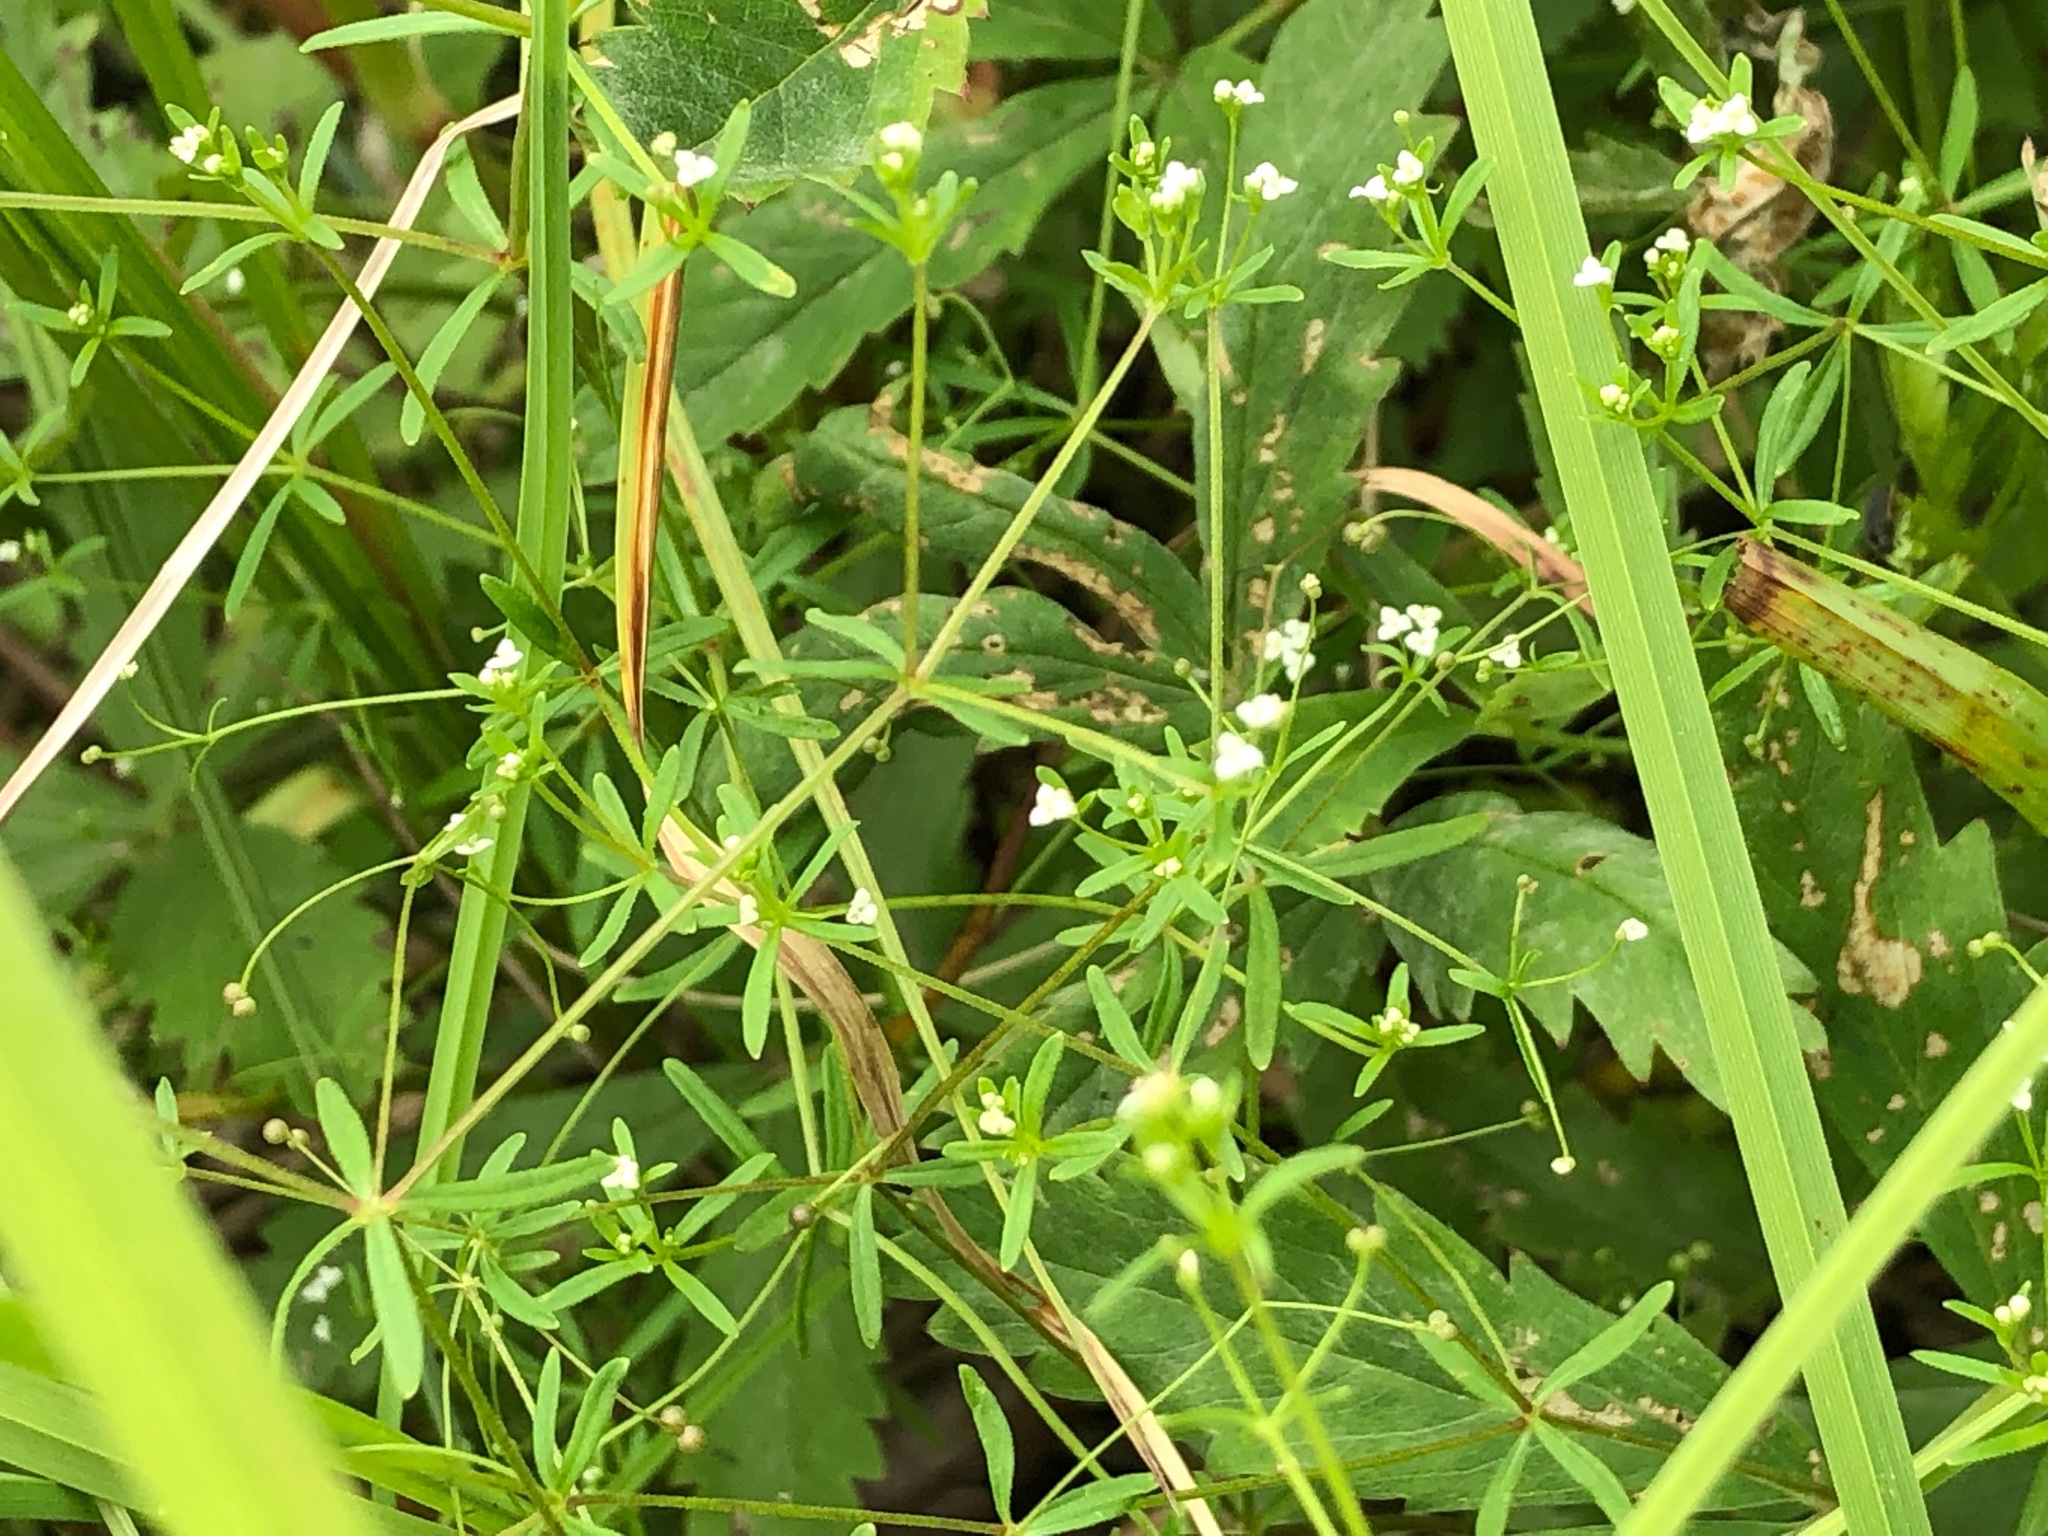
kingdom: Plantae
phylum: Tracheophyta
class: Magnoliopsida
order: Gentianales
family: Rubiaceae
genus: Galium
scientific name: Galium trifidum
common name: Small bedstraw
